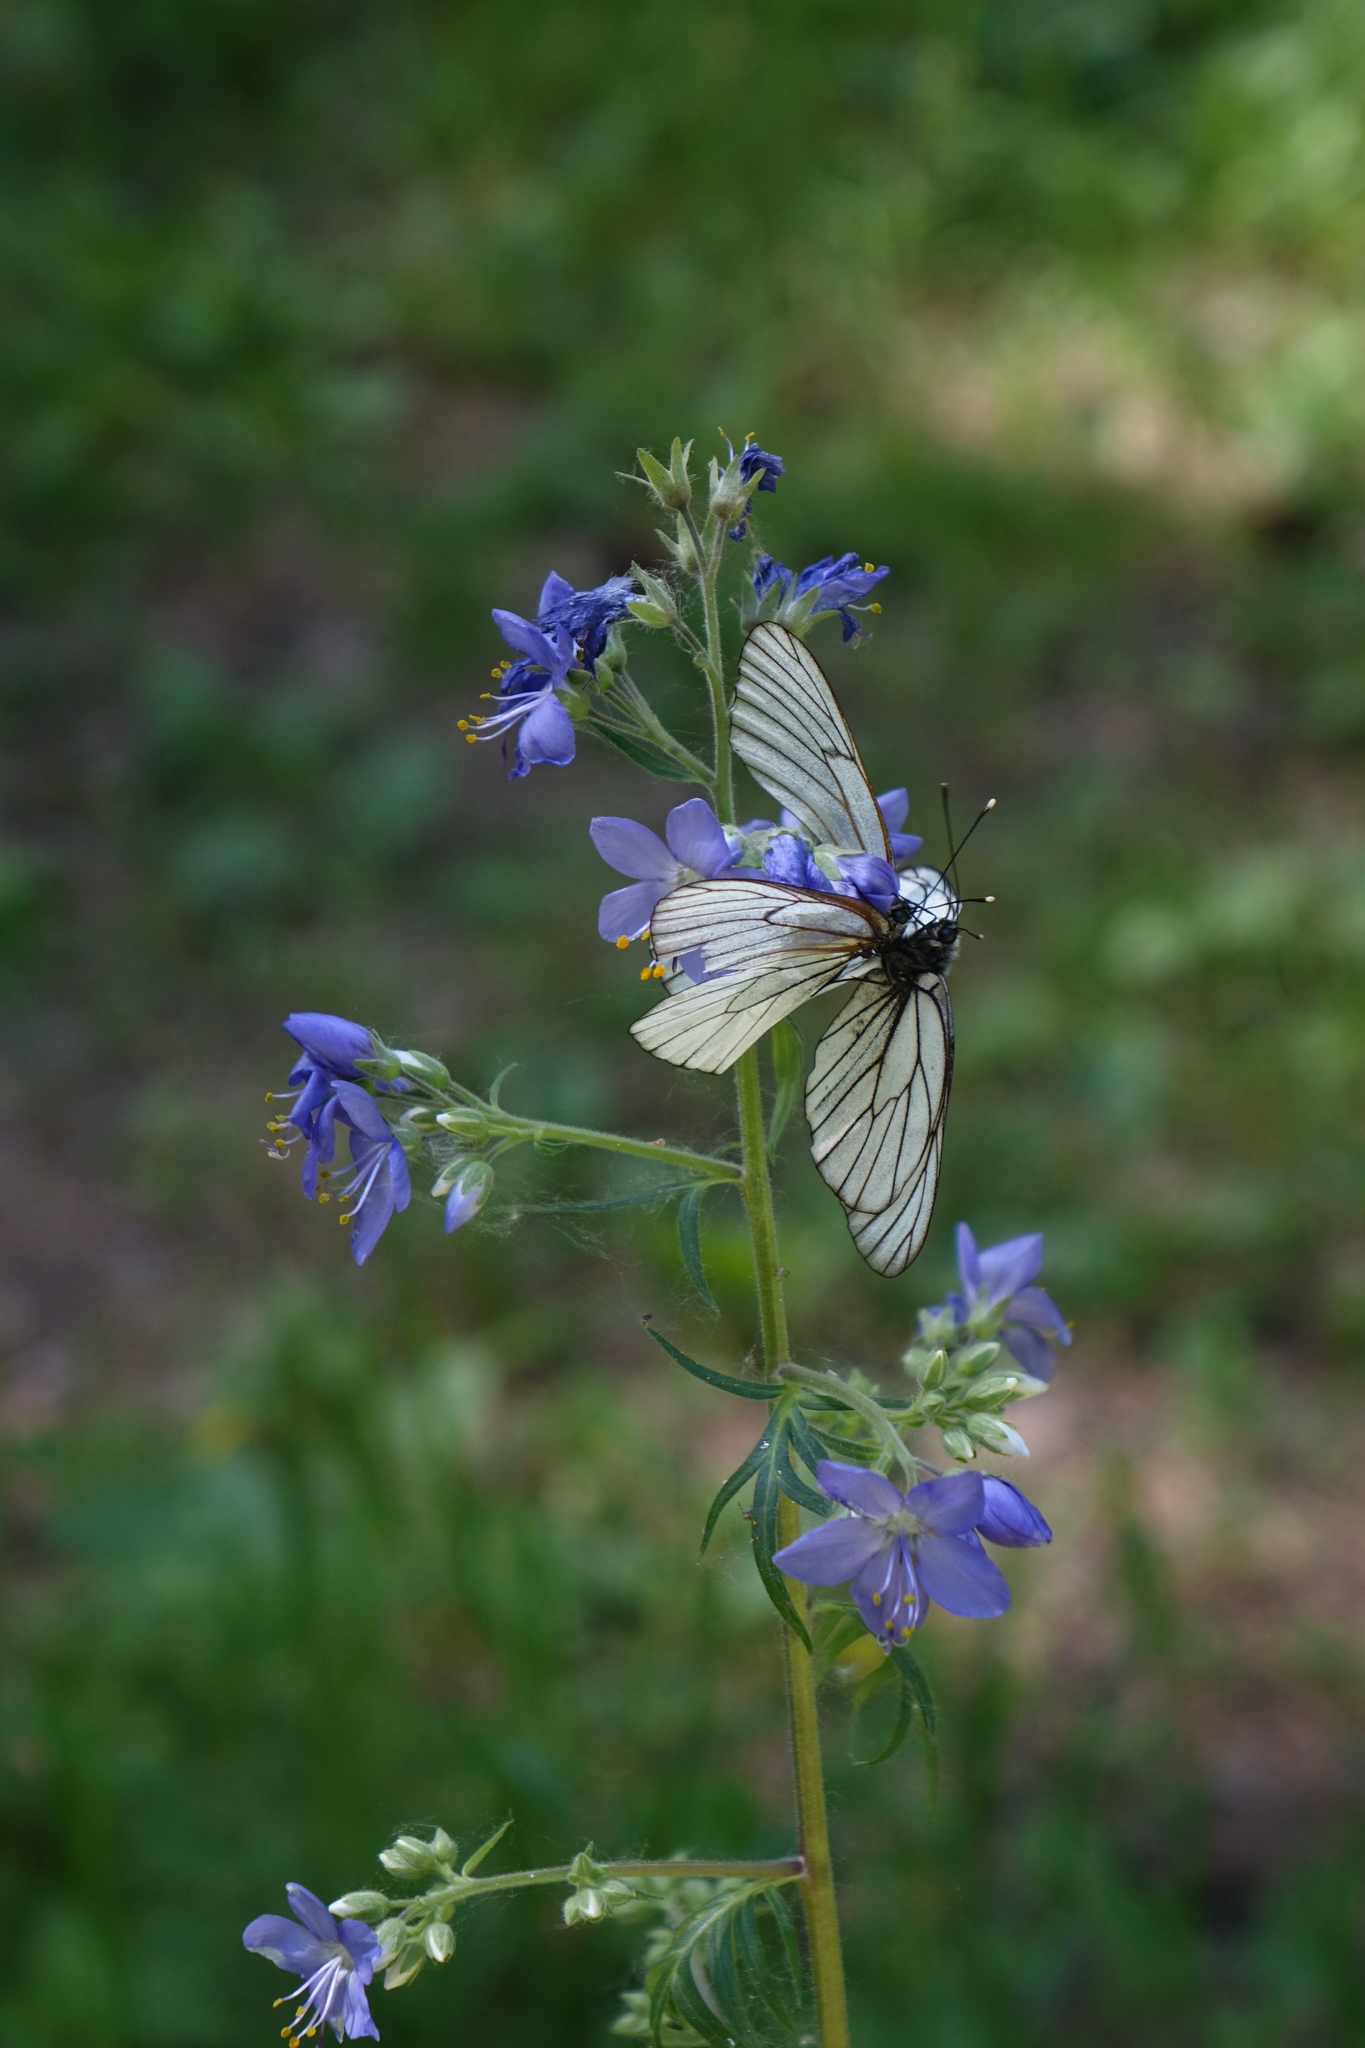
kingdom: Plantae
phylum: Tracheophyta
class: Magnoliopsida
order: Ericales
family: Polemoniaceae
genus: Polemonium
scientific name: Polemonium caeruleum
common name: Jacob's-ladder
